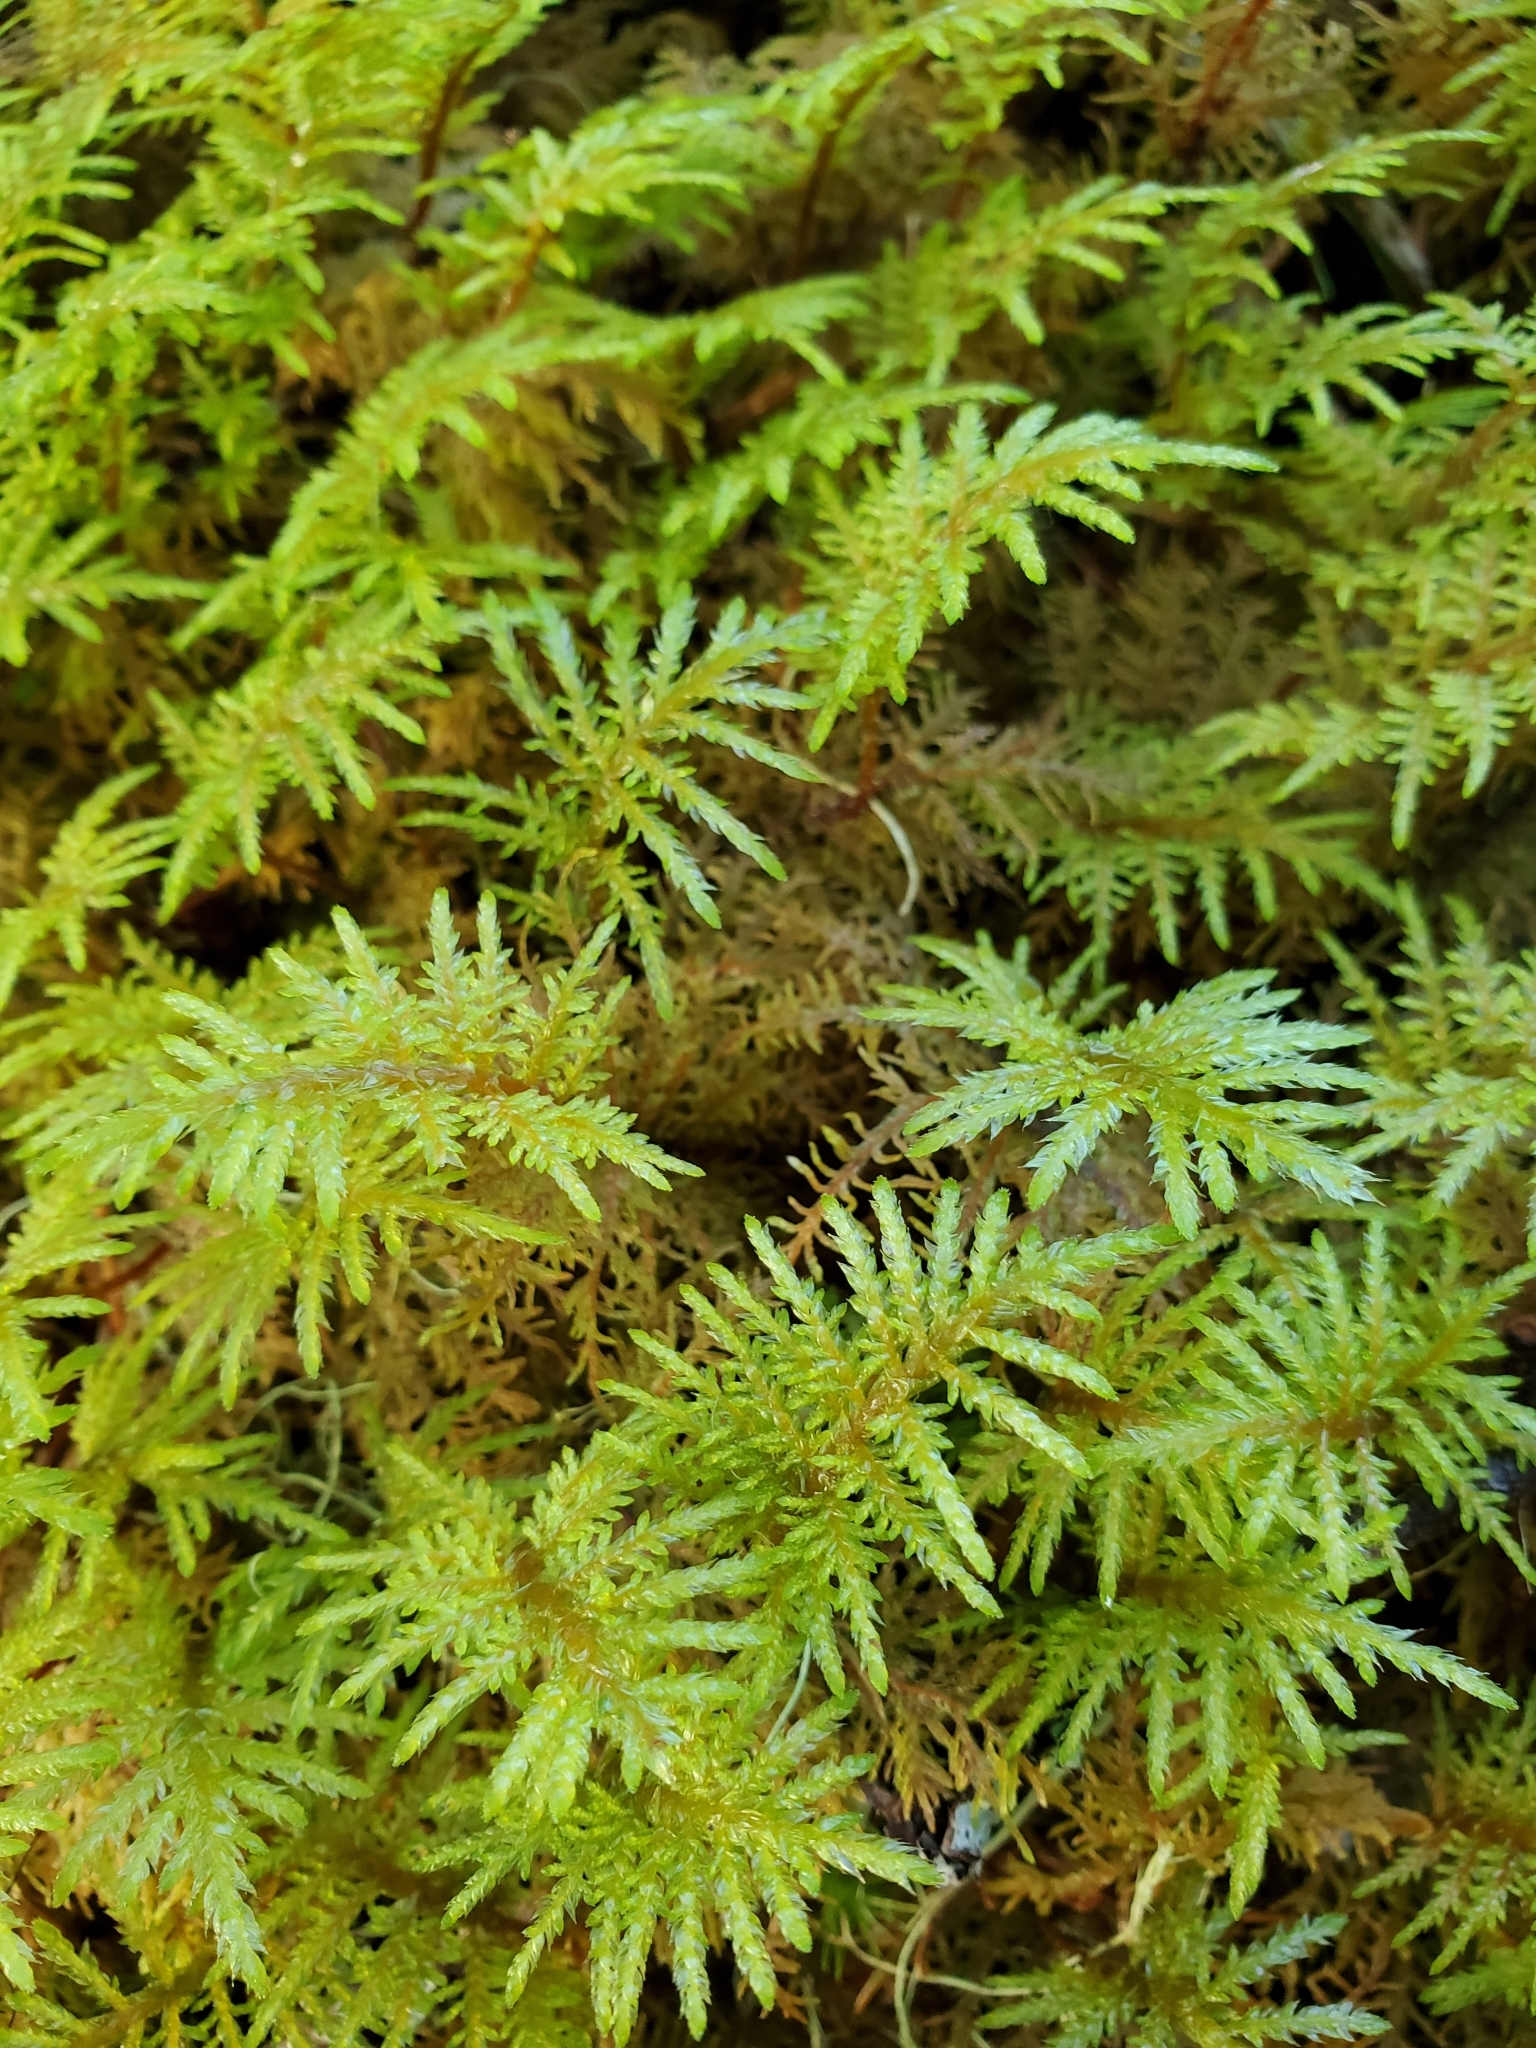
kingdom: Plantae
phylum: Bryophyta
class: Bryopsida
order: Hypnales
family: Hylocomiaceae
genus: Hylocomium
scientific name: Hylocomium splendens
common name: Stairstep moss
